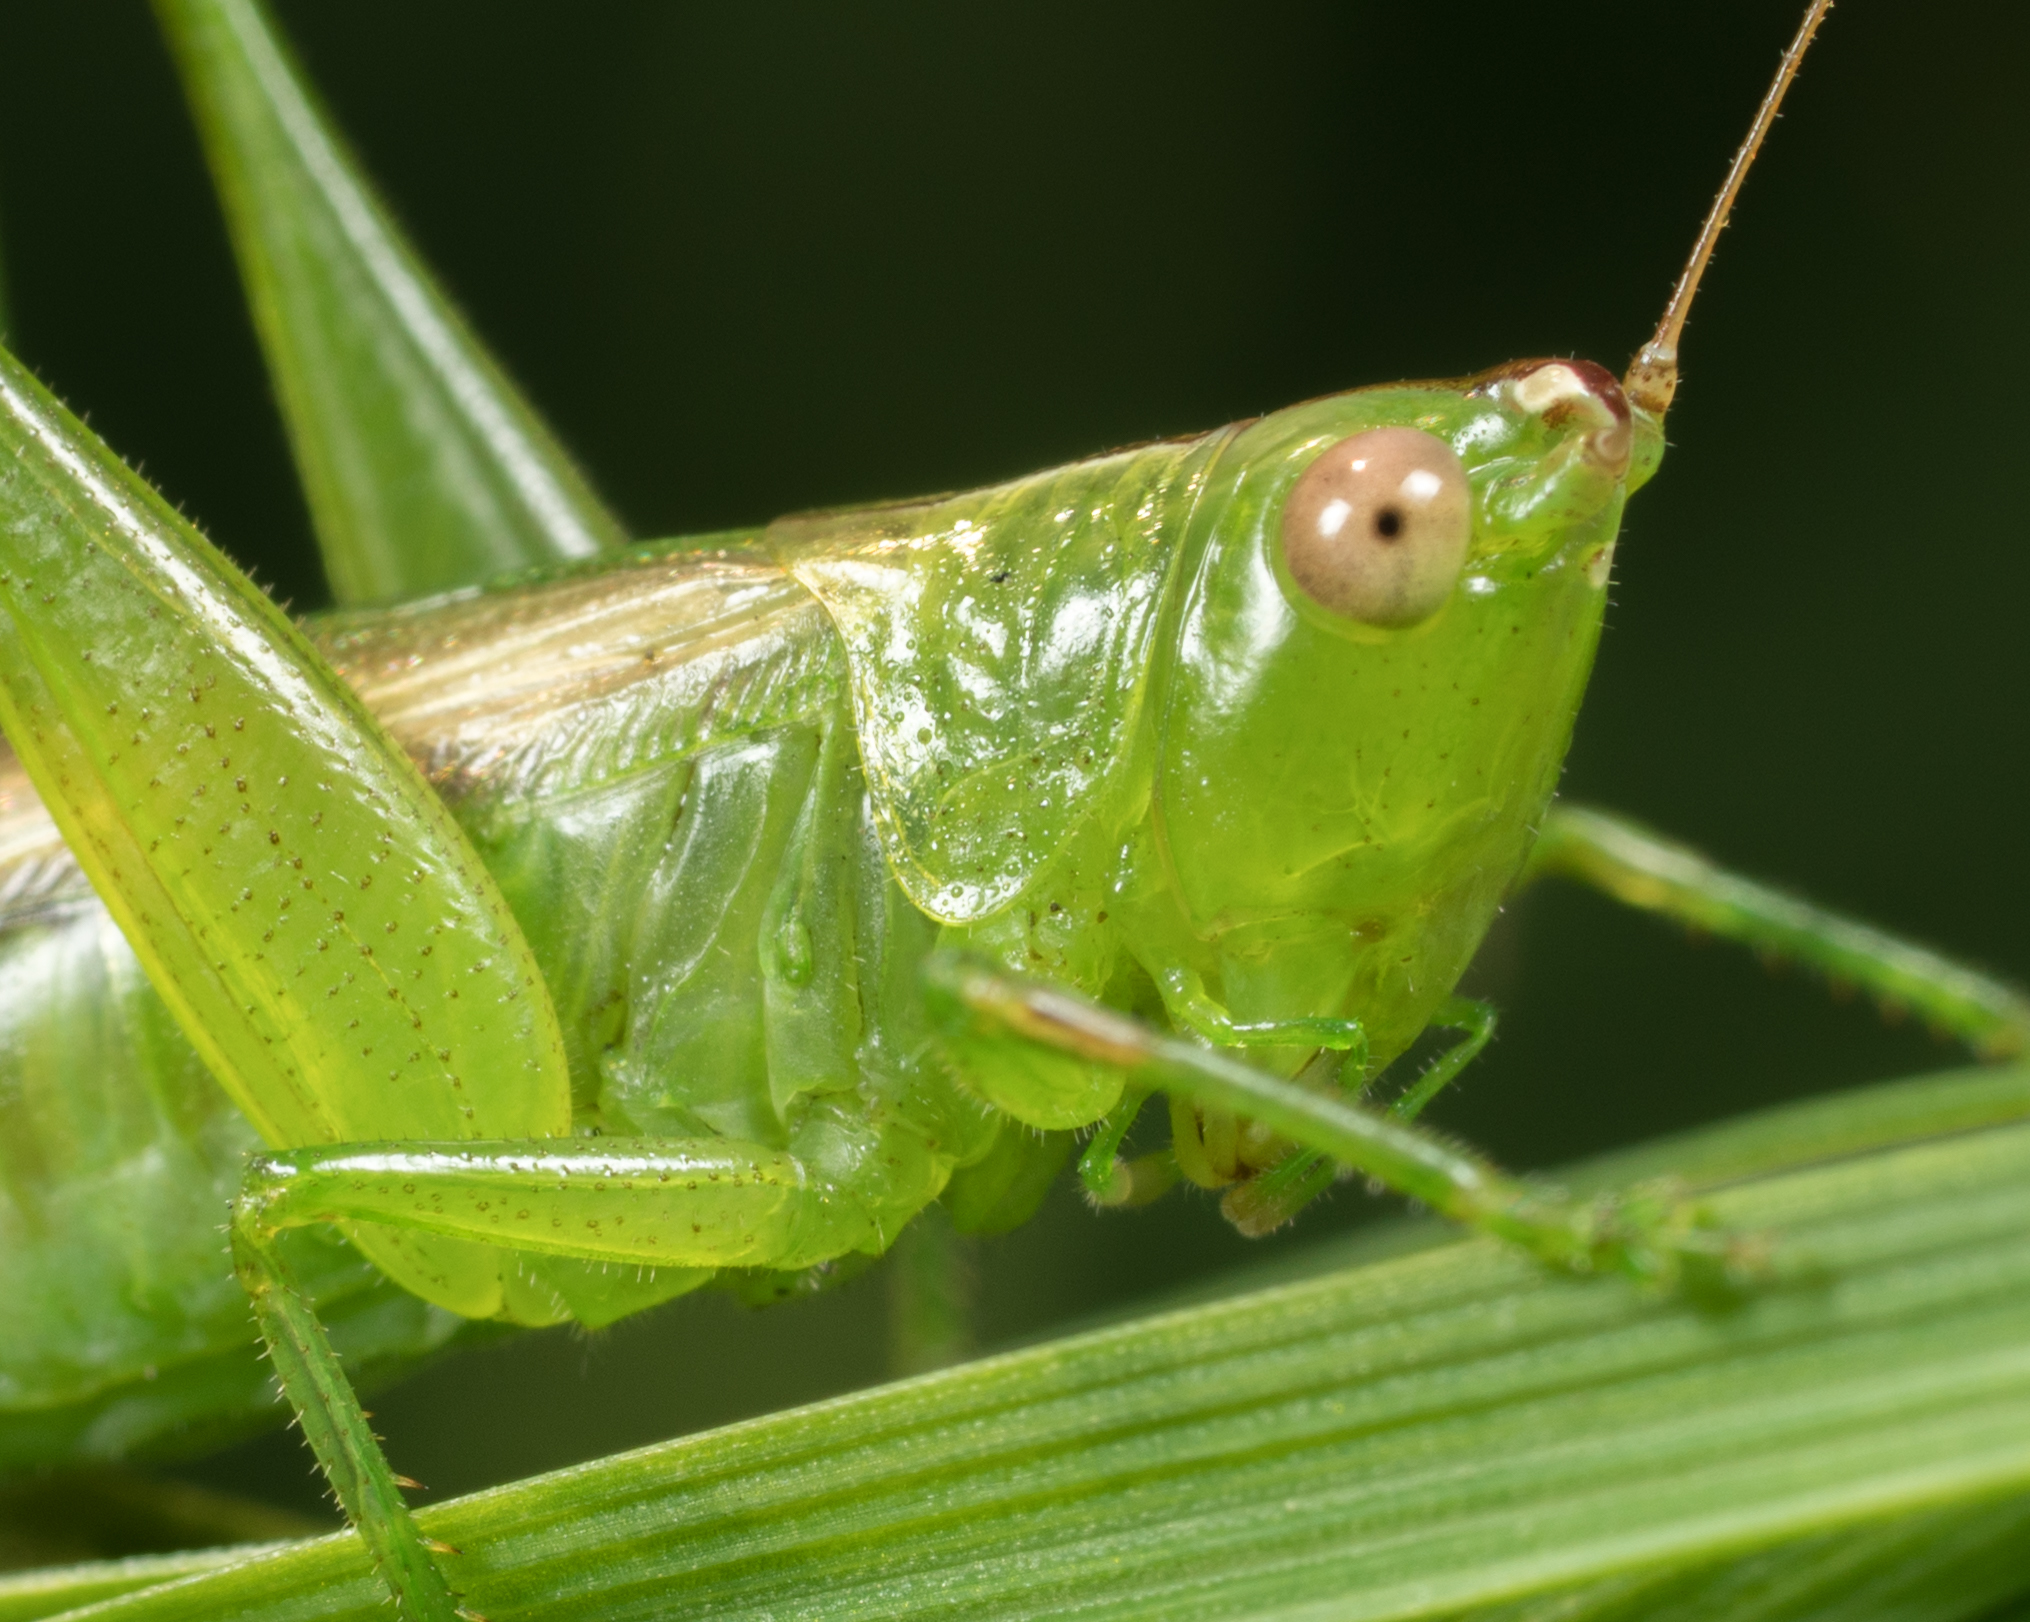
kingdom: Animalia
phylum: Arthropoda
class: Insecta
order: Orthoptera
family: Tettigoniidae
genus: Conocephalus
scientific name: Conocephalus fasciatus
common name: Slender meadow katydid
